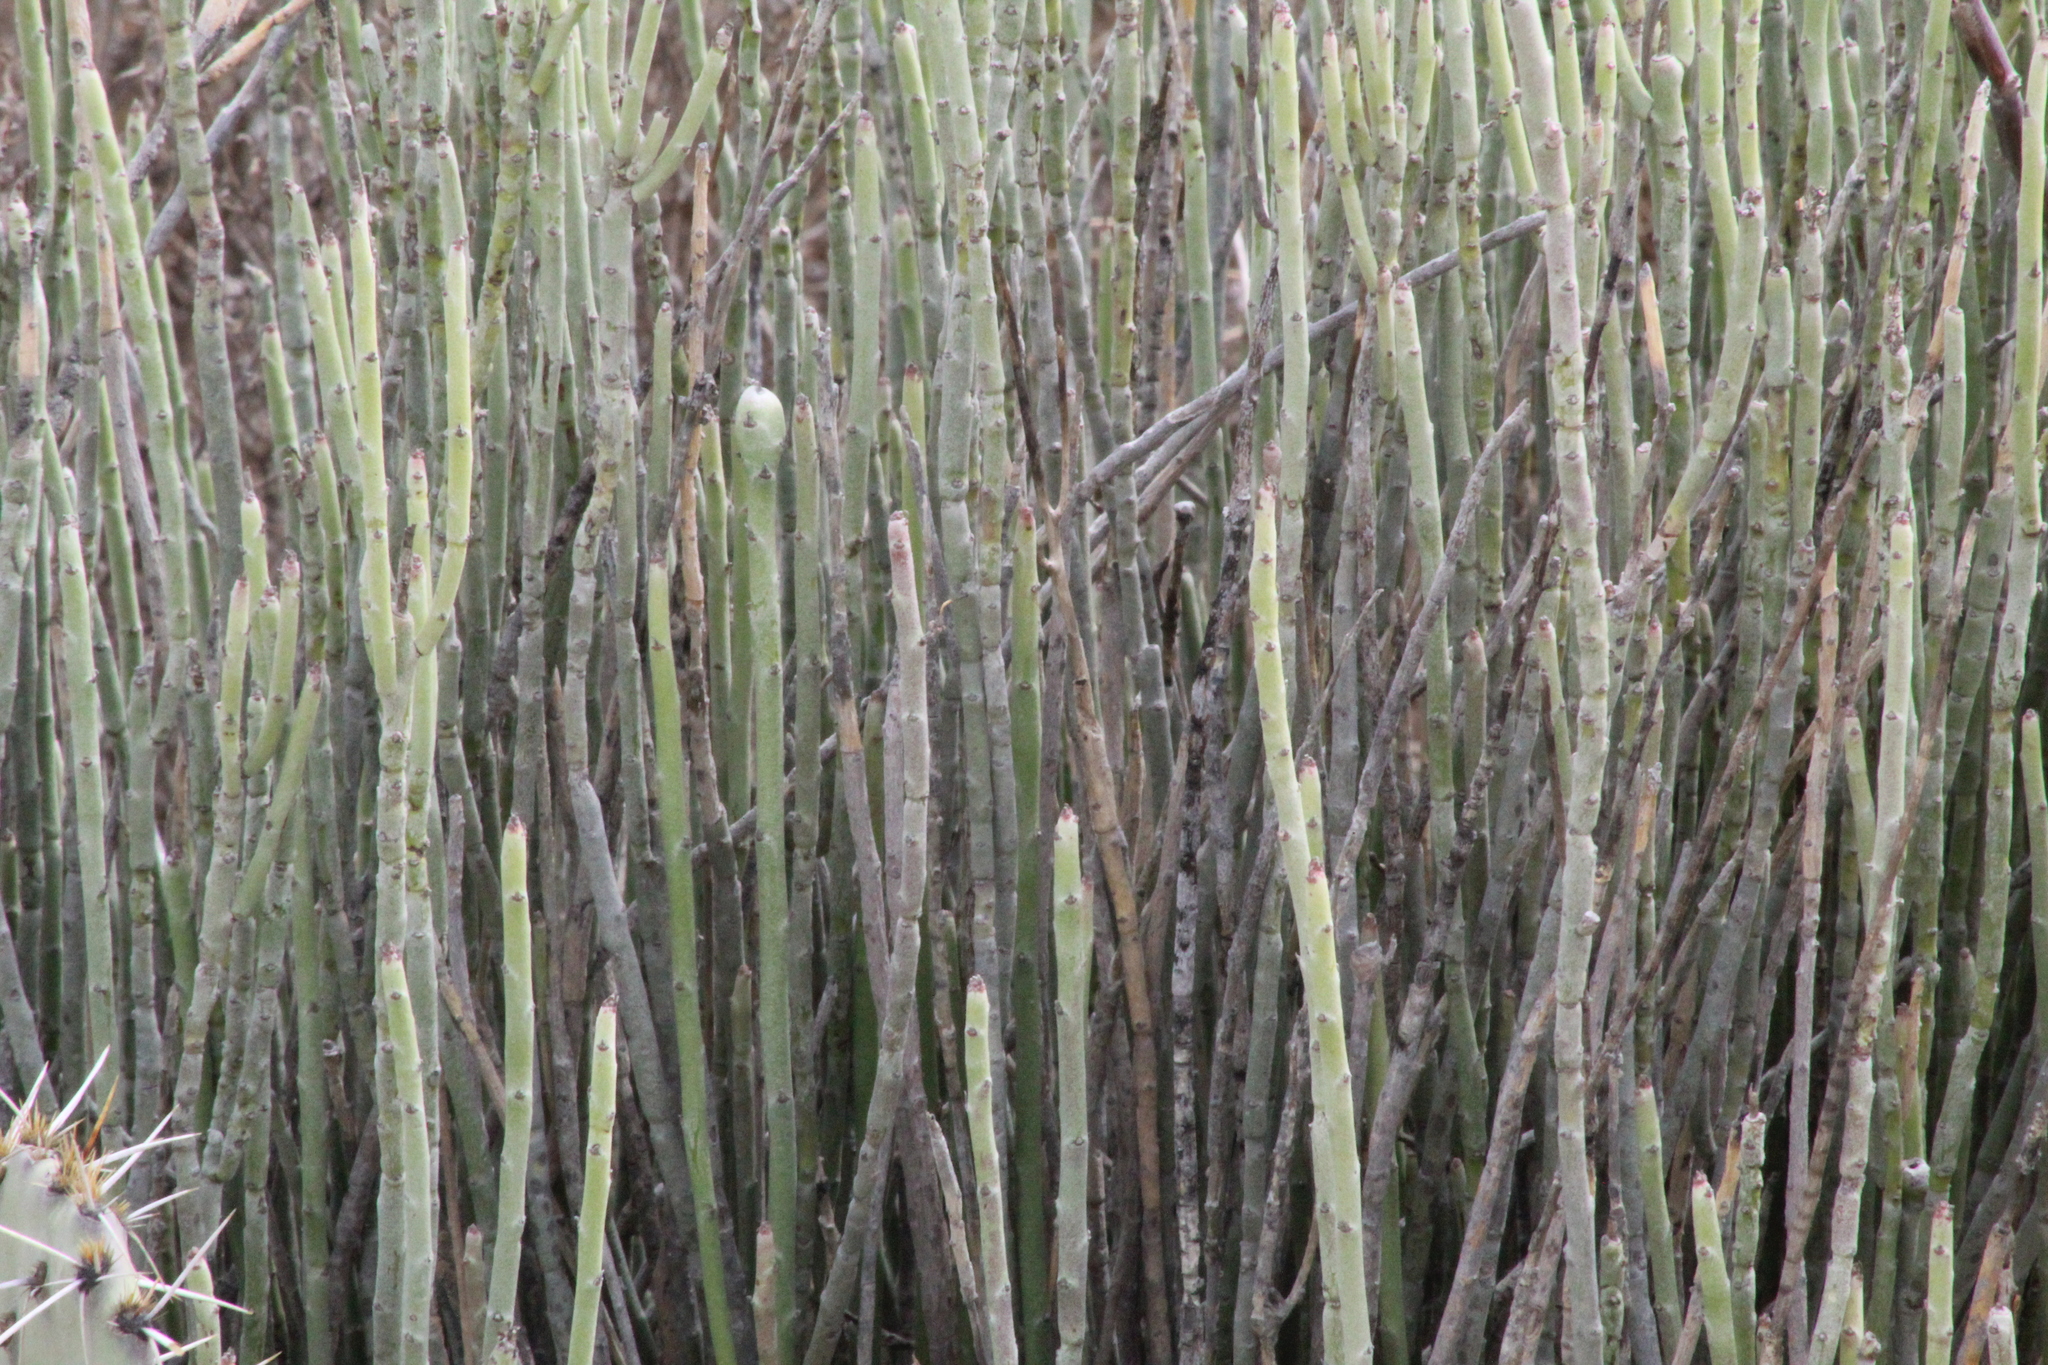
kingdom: Plantae
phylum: Tracheophyta
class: Magnoliopsida
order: Malpighiales
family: Euphorbiaceae
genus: Euphorbia
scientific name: Euphorbia antisyphilitica
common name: Candelilla
